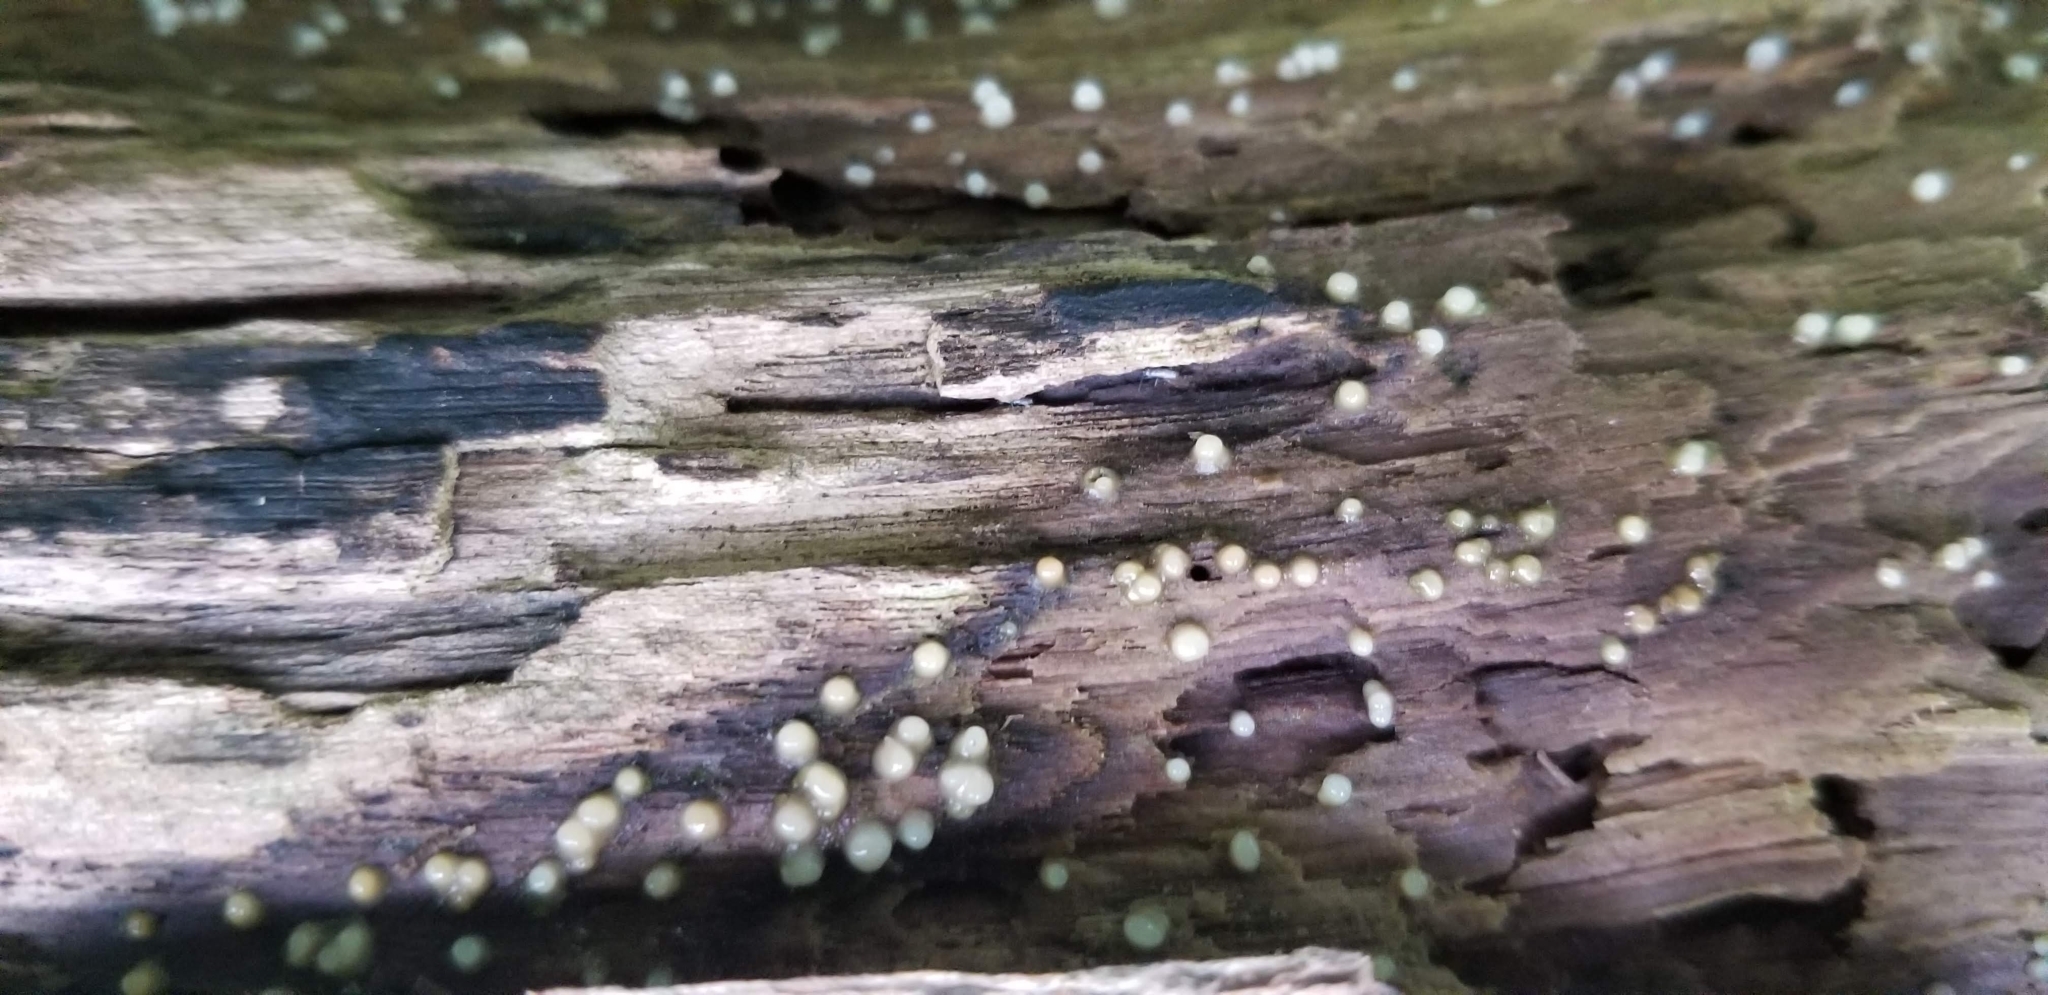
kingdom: Fungi
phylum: Basidiomycota
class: Atractiellomycetes
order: Atractiellales
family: Phleogenaceae
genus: Helicogloea
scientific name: Helicogloea compressa
